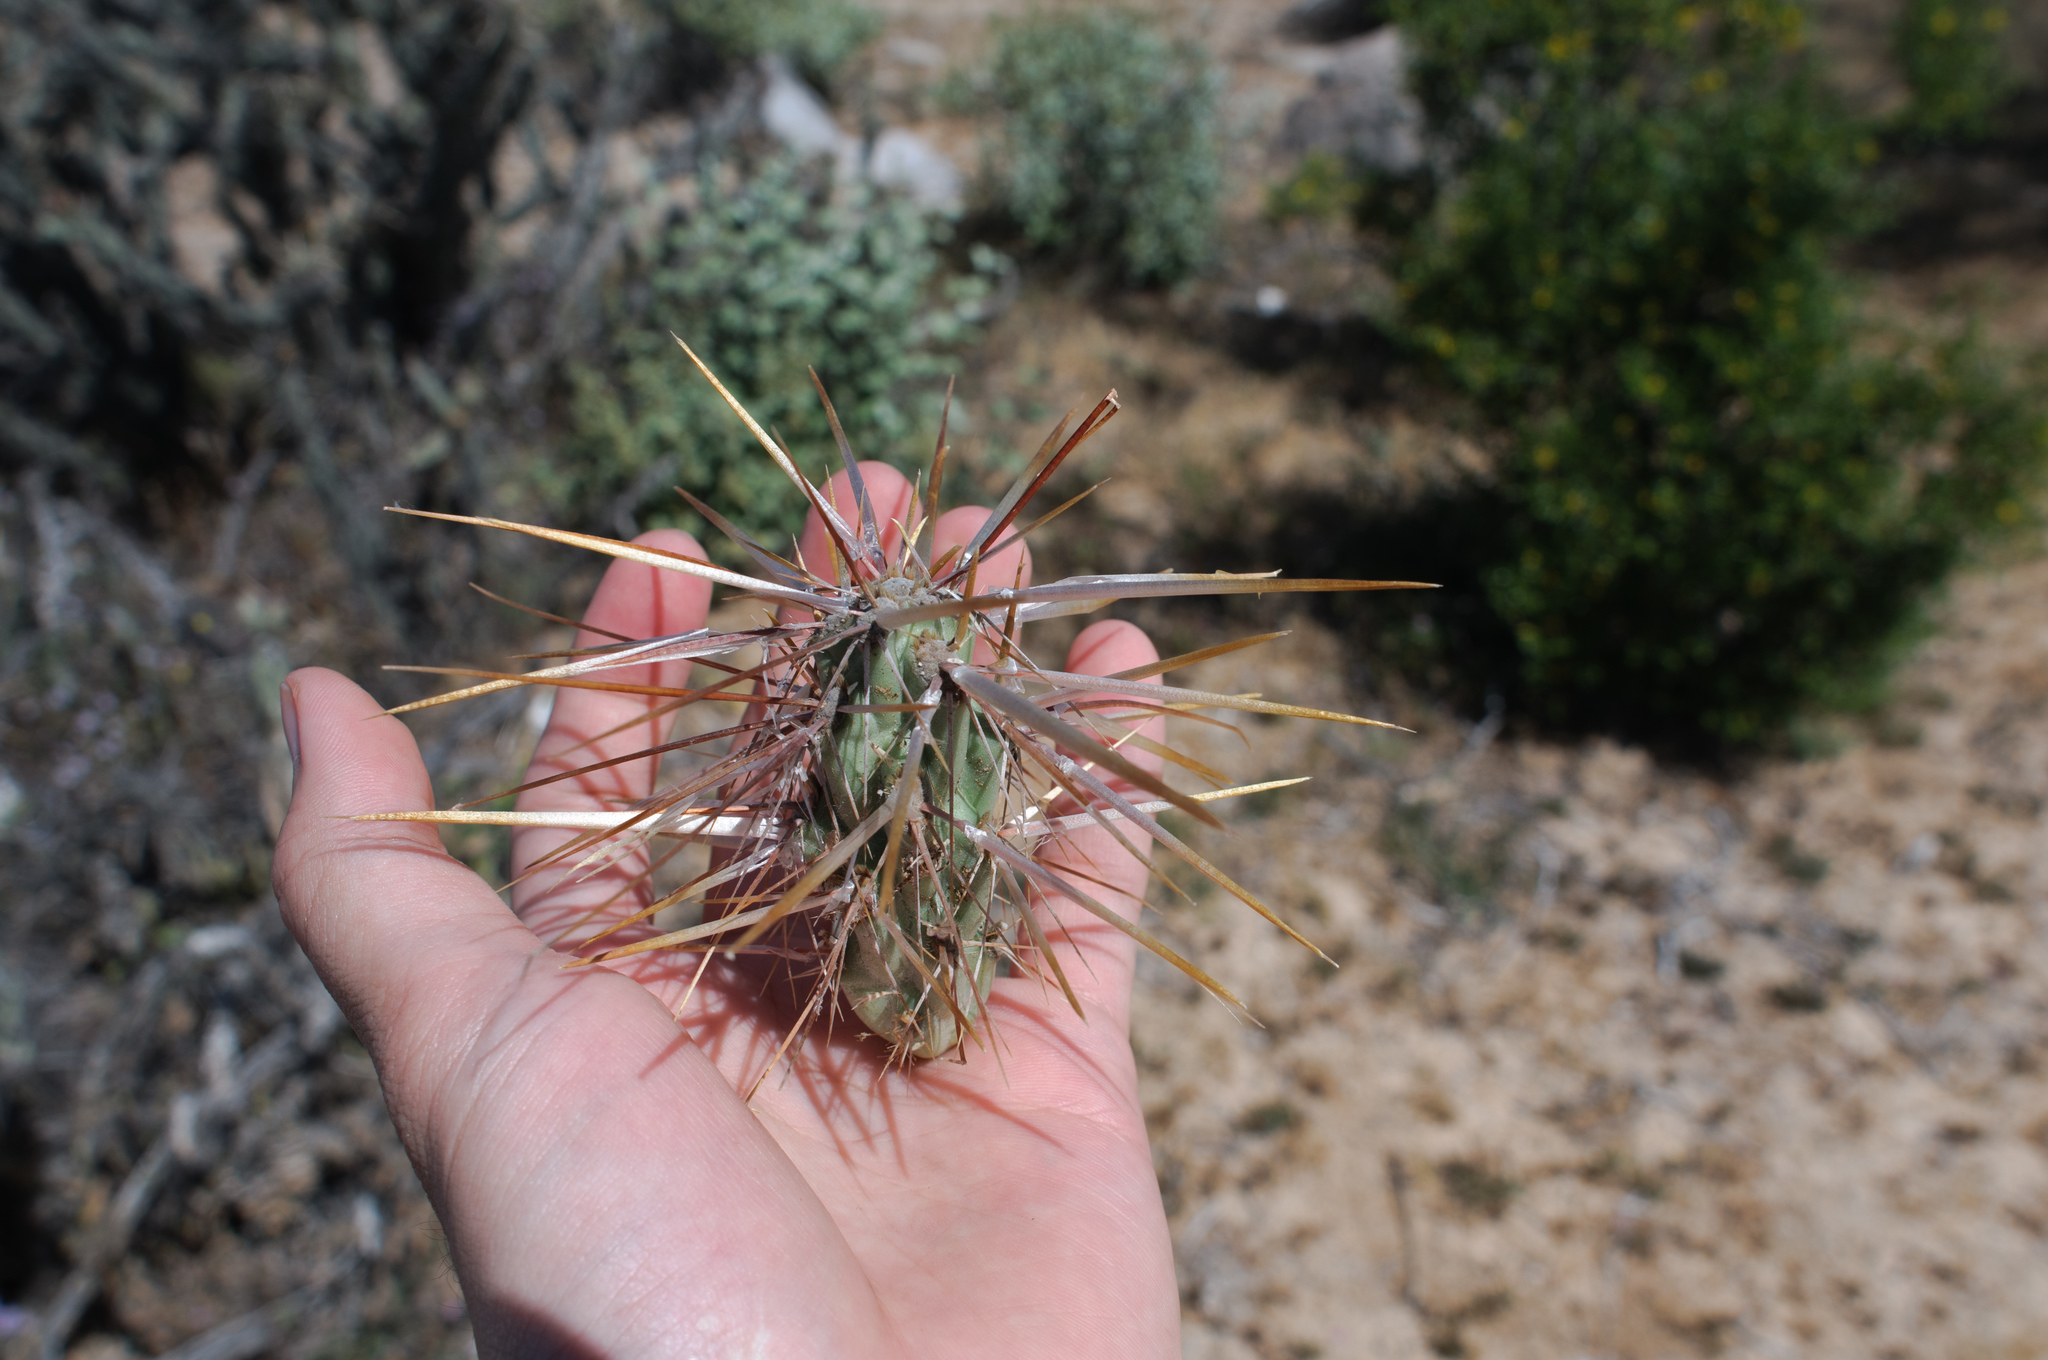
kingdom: Plantae
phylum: Tracheophyta
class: Magnoliopsida
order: Caryophyllales
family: Cactaceae
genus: Cylindropuntia
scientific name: Cylindropuntia molesta
